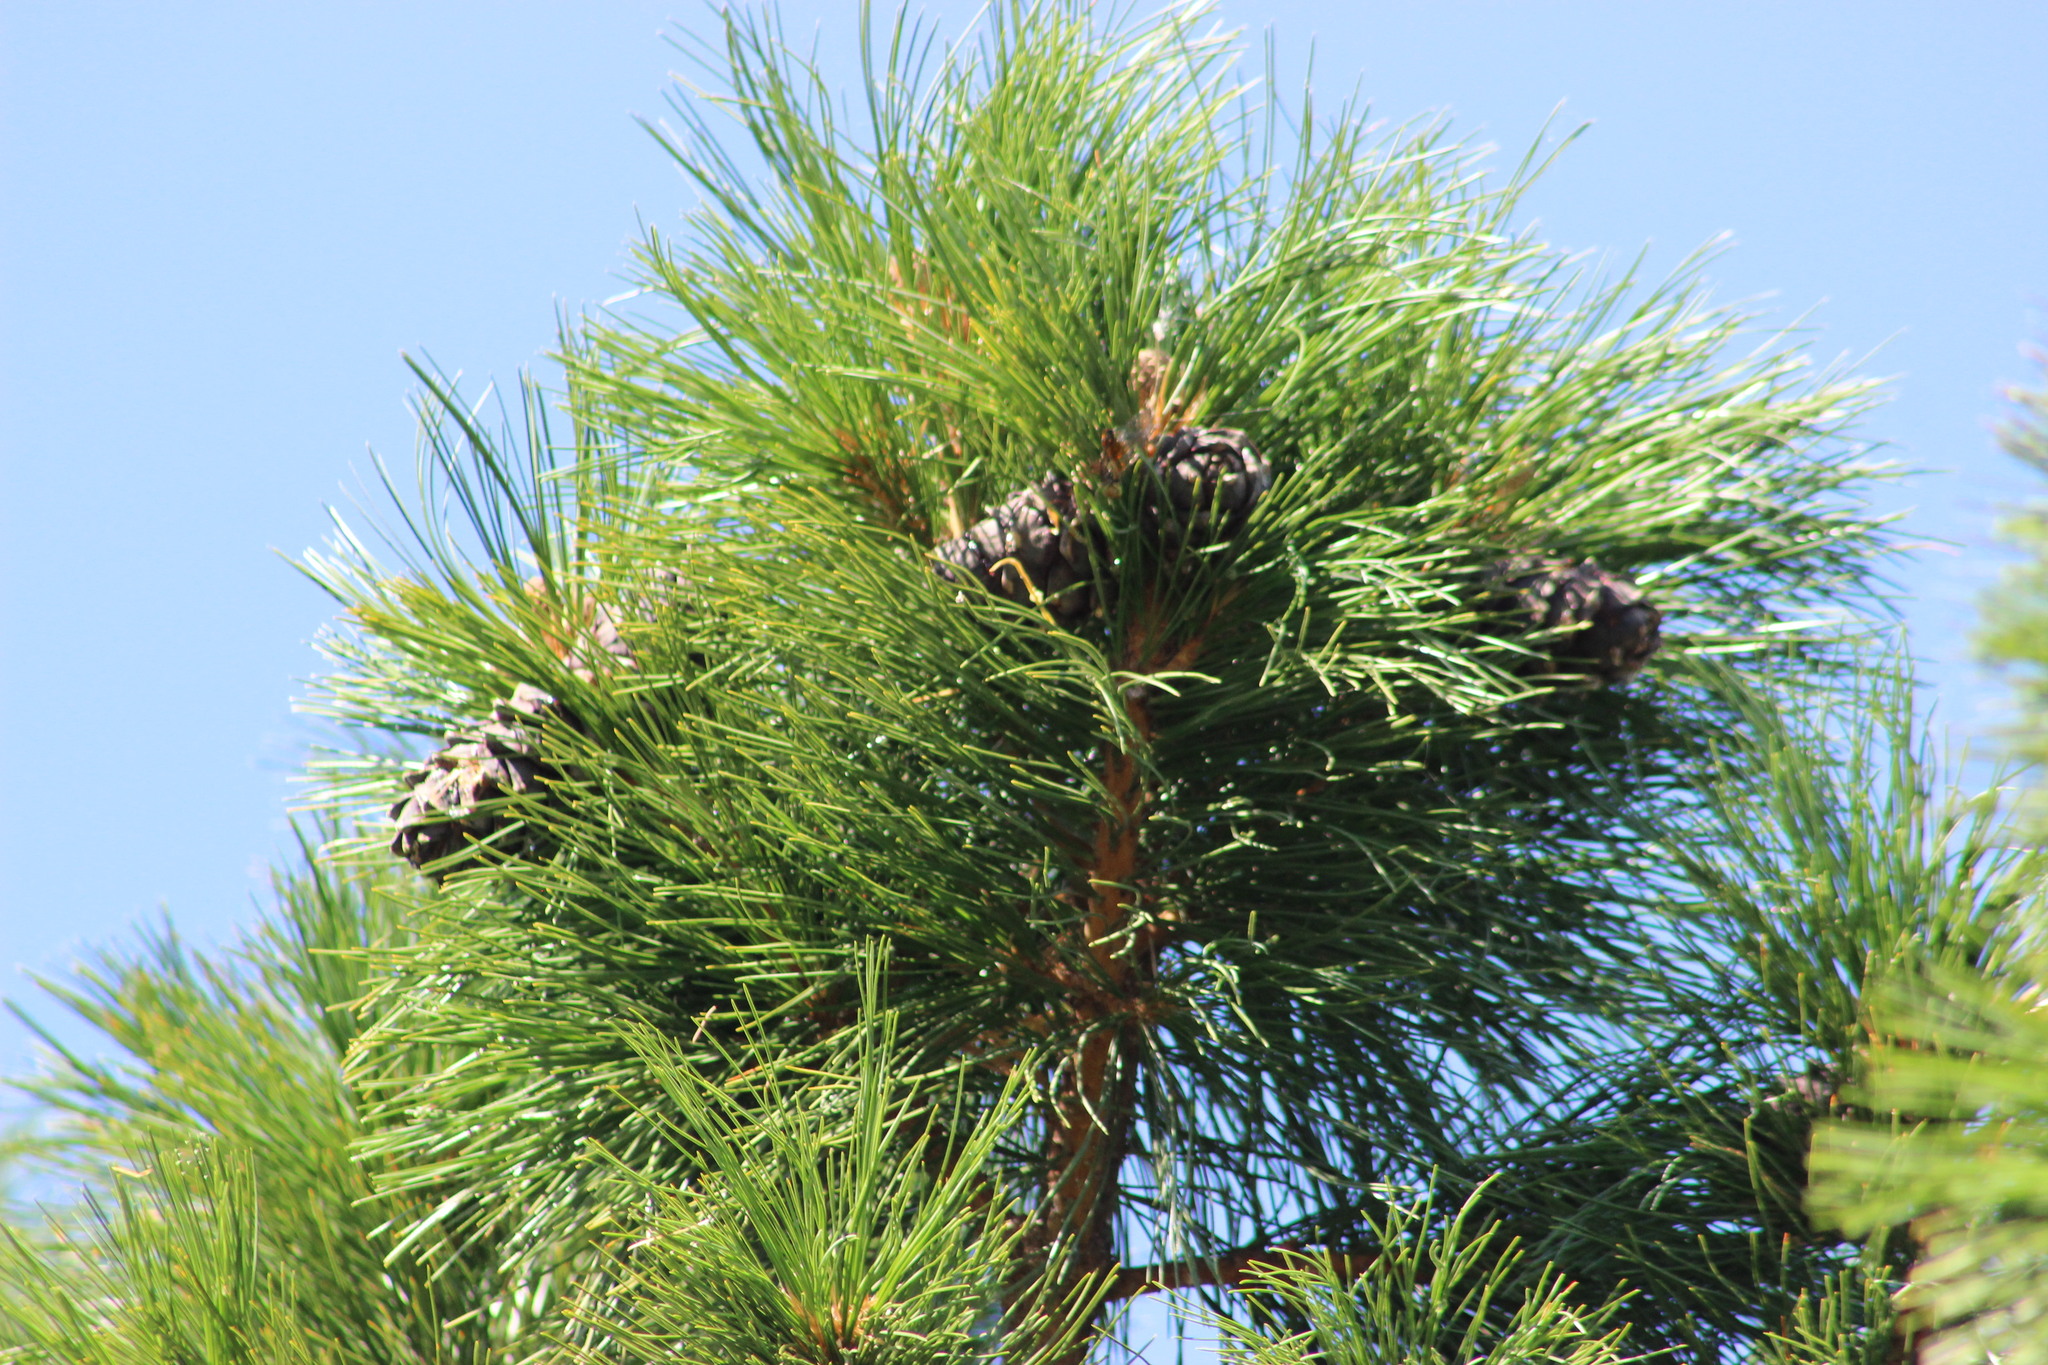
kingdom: Plantae
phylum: Tracheophyta
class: Pinopsida
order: Pinales
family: Pinaceae
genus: Pinus
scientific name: Pinus sibirica
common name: Siberian pine
